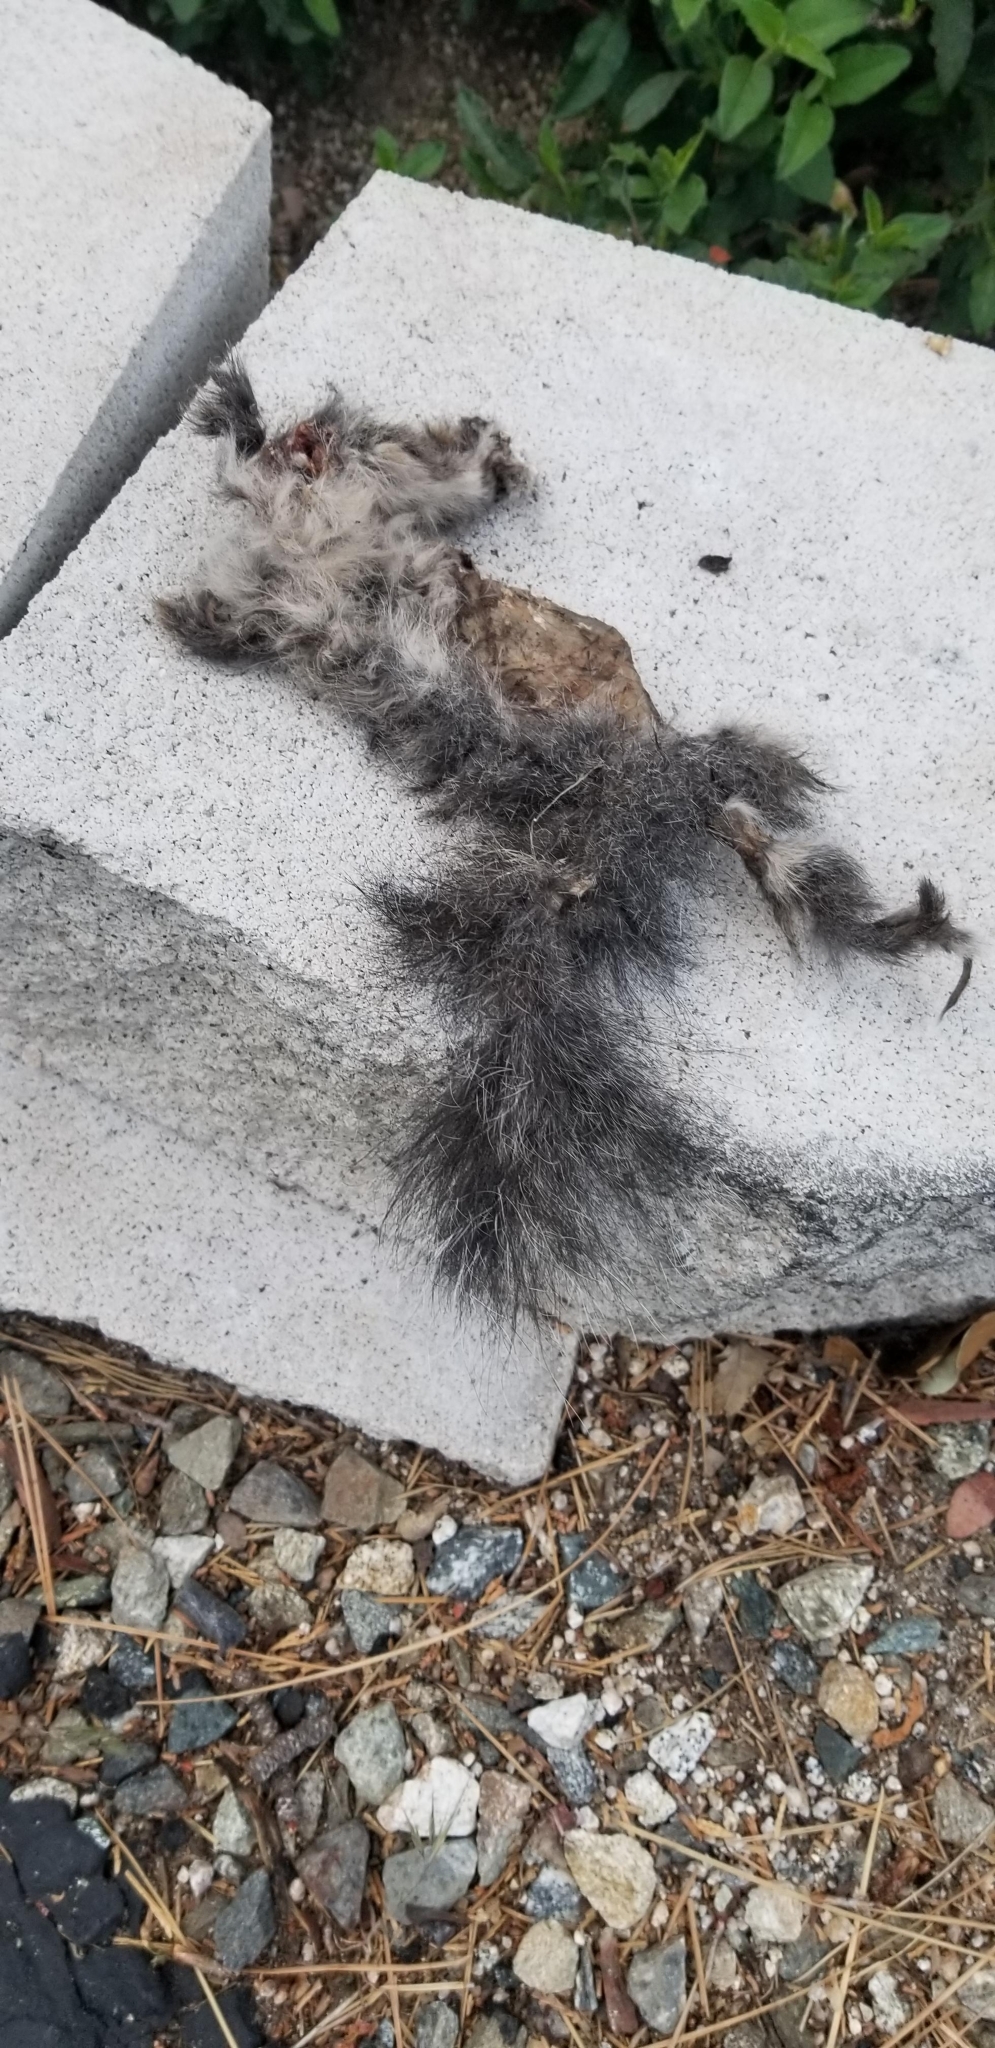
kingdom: Animalia
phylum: Chordata
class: Mammalia
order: Rodentia
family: Sciuridae
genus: Sciurus
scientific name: Sciurus griseus
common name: Western gray squirrel
